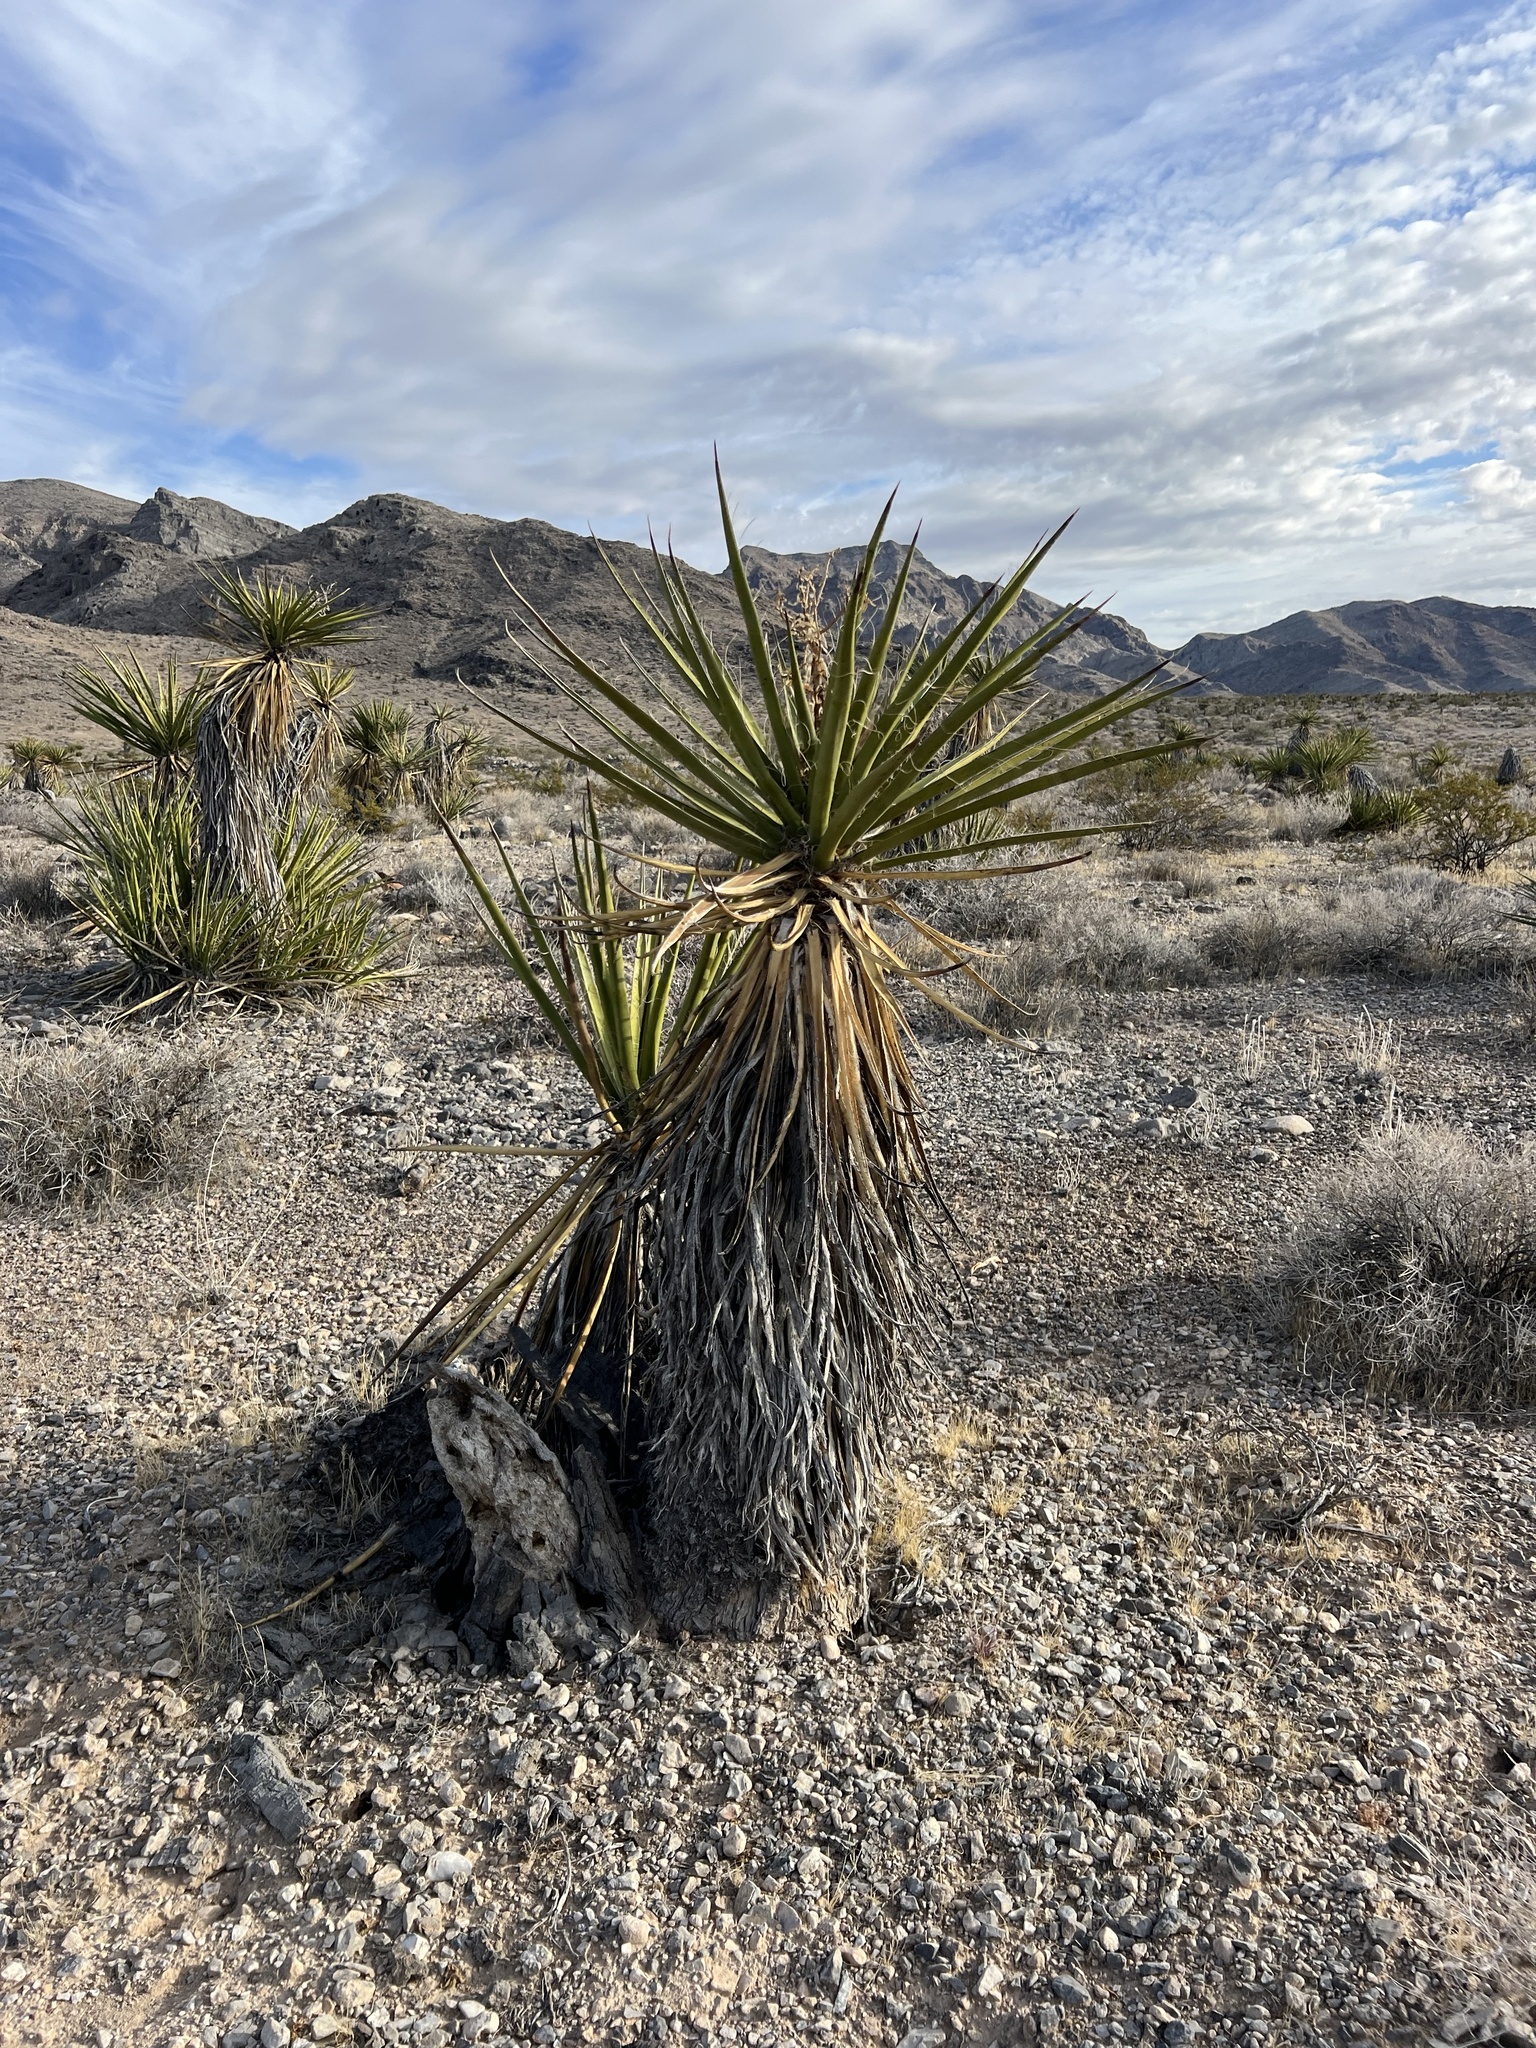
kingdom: Plantae
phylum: Tracheophyta
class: Liliopsida
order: Asparagales
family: Asparagaceae
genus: Yucca
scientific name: Yucca schidigera
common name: Mojave yucca
